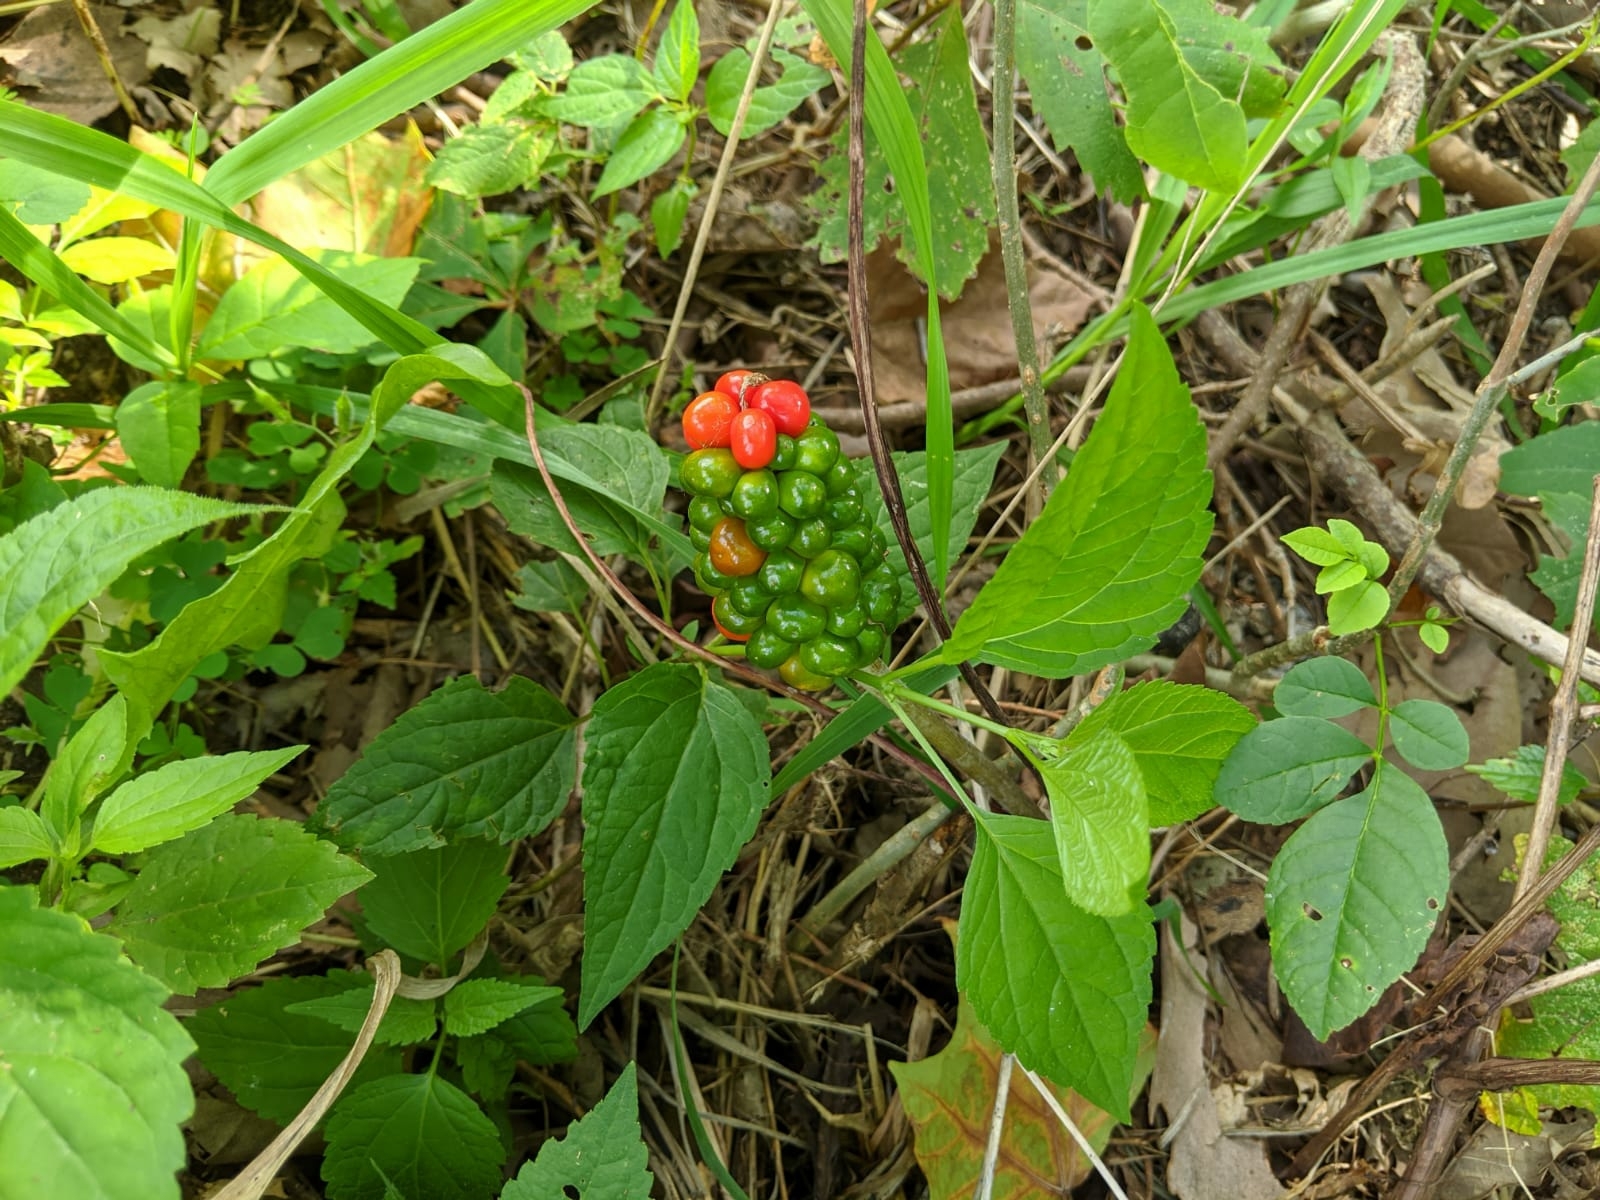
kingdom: Plantae
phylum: Tracheophyta
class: Liliopsida
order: Alismatales
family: Araceae
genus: Arisaema
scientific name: Arisaema triphyllum
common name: Jack-in-the-pulpit
